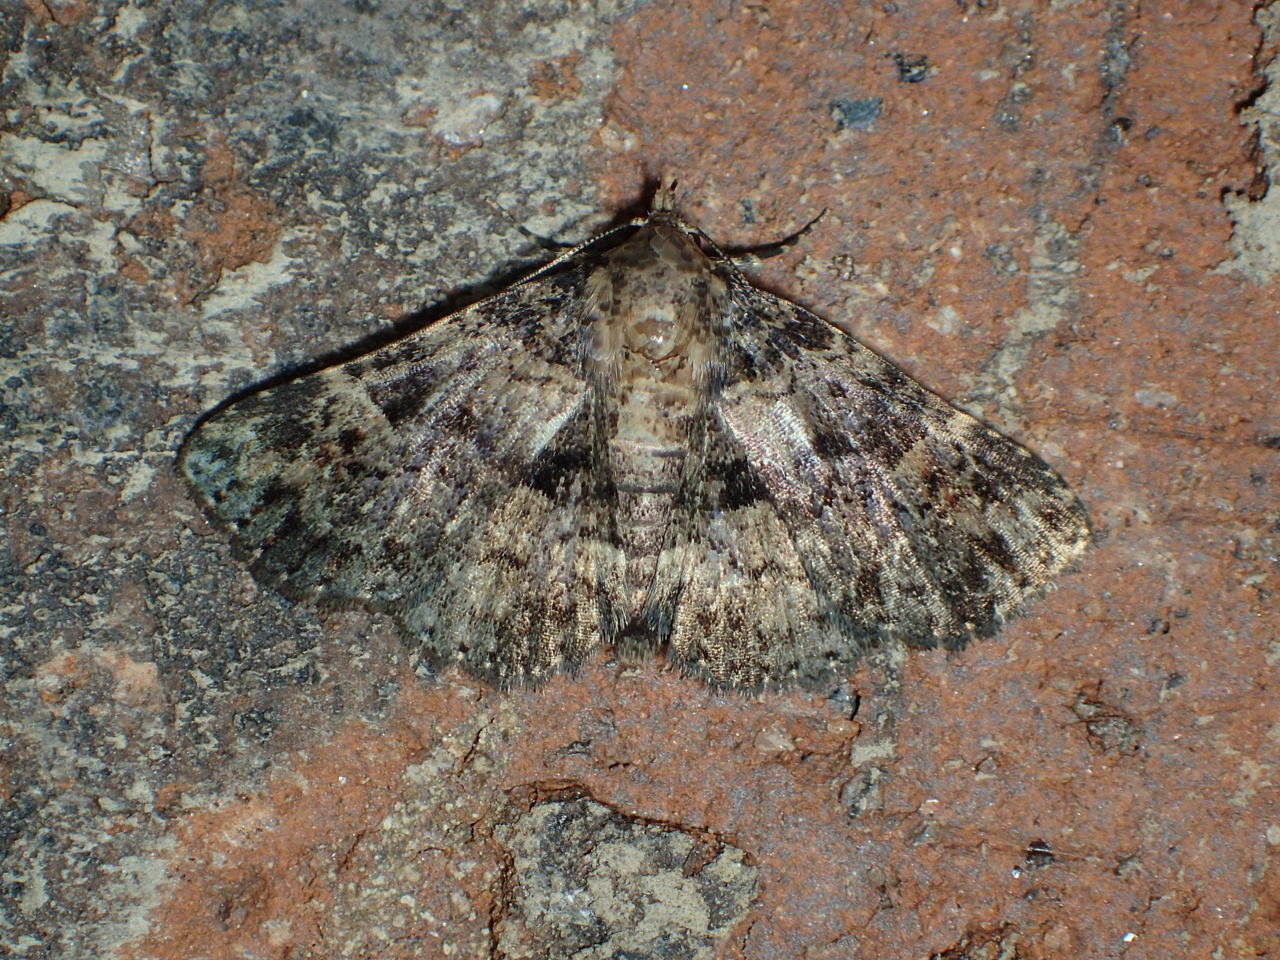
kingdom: Animalia
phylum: Arthropoda
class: Insecta
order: Lepidoptera
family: Erebidae
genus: Metalectra
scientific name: Metalectra discalis
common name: Common fungus moth
